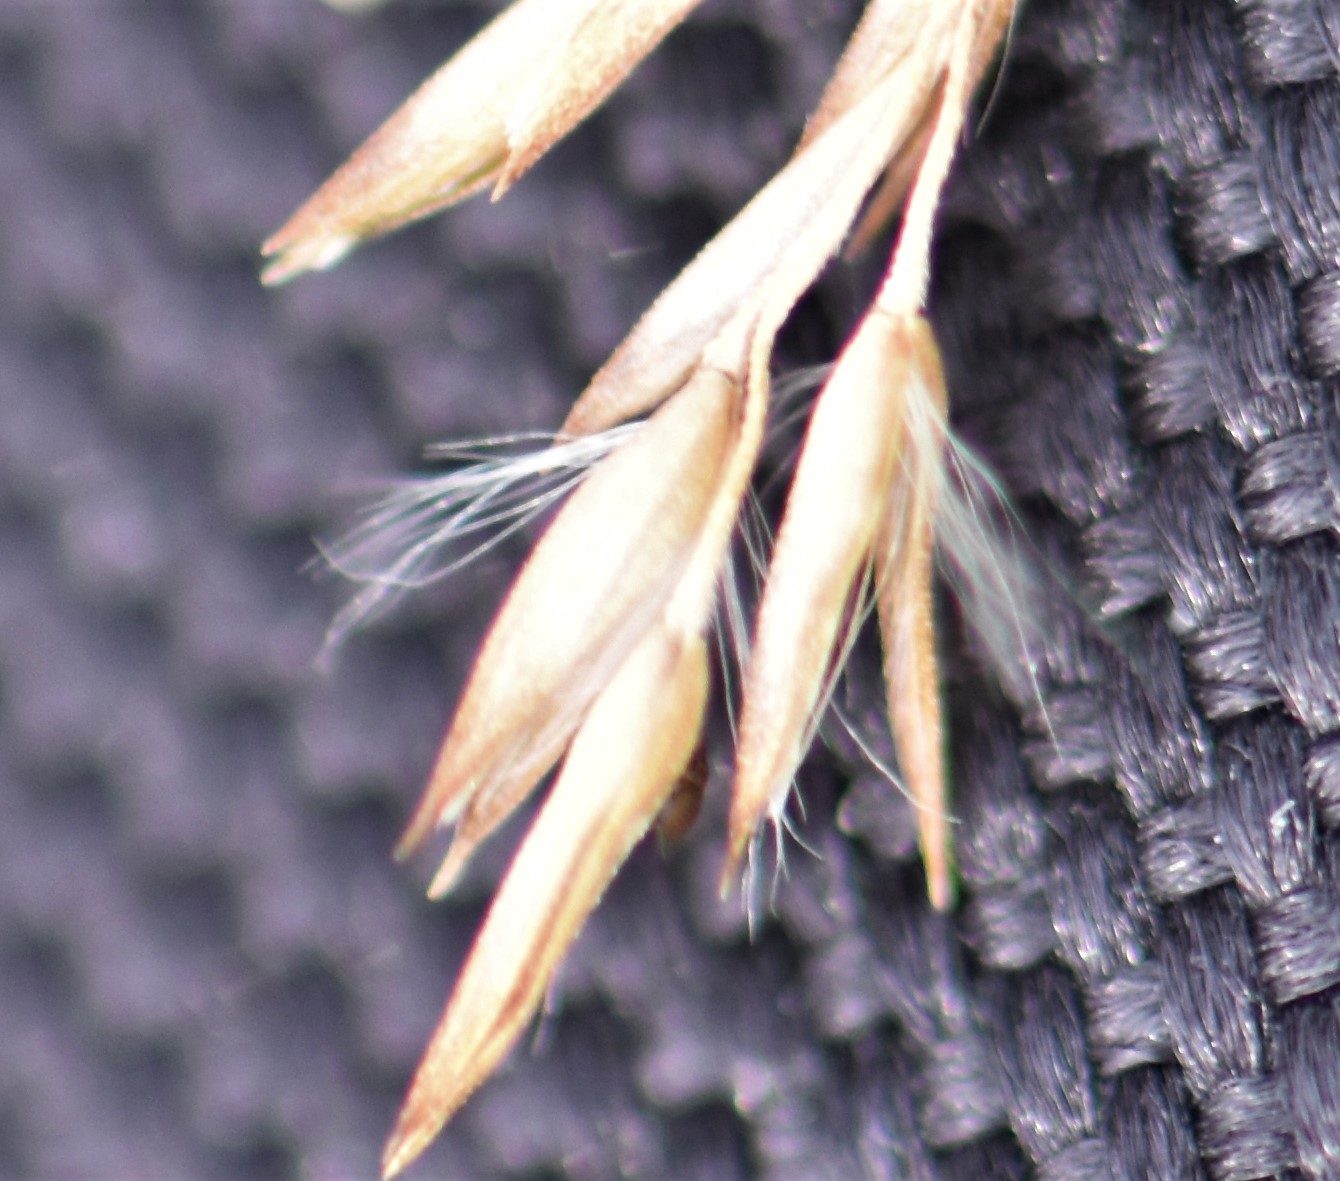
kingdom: Plantae
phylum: Tracheophyta
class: Liliopsida
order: Poales
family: Poaceae
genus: Calamagrostis
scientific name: Calamagrostis stricta
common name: Narrow small-reed
